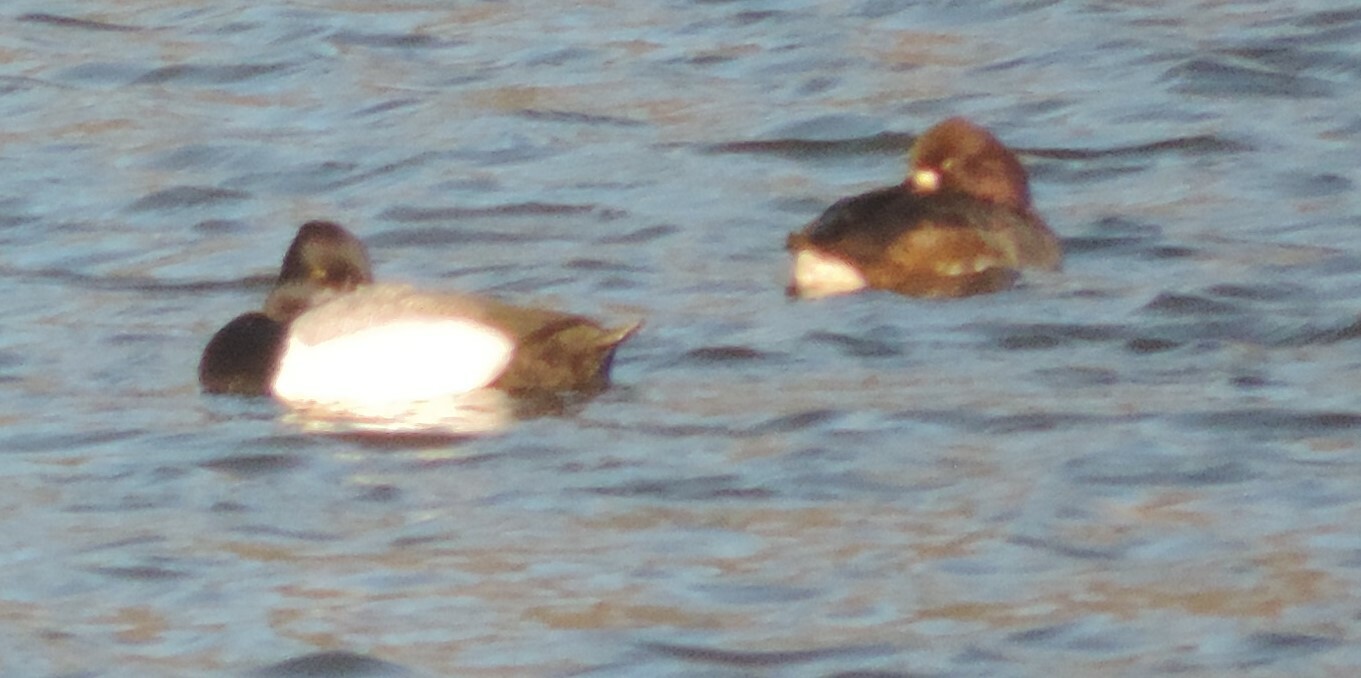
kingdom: Animalia
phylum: Chordata
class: Aves
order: Anseriformes
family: Anatidae
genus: Aythya
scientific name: Aythya affinis
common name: Lesser scaup
